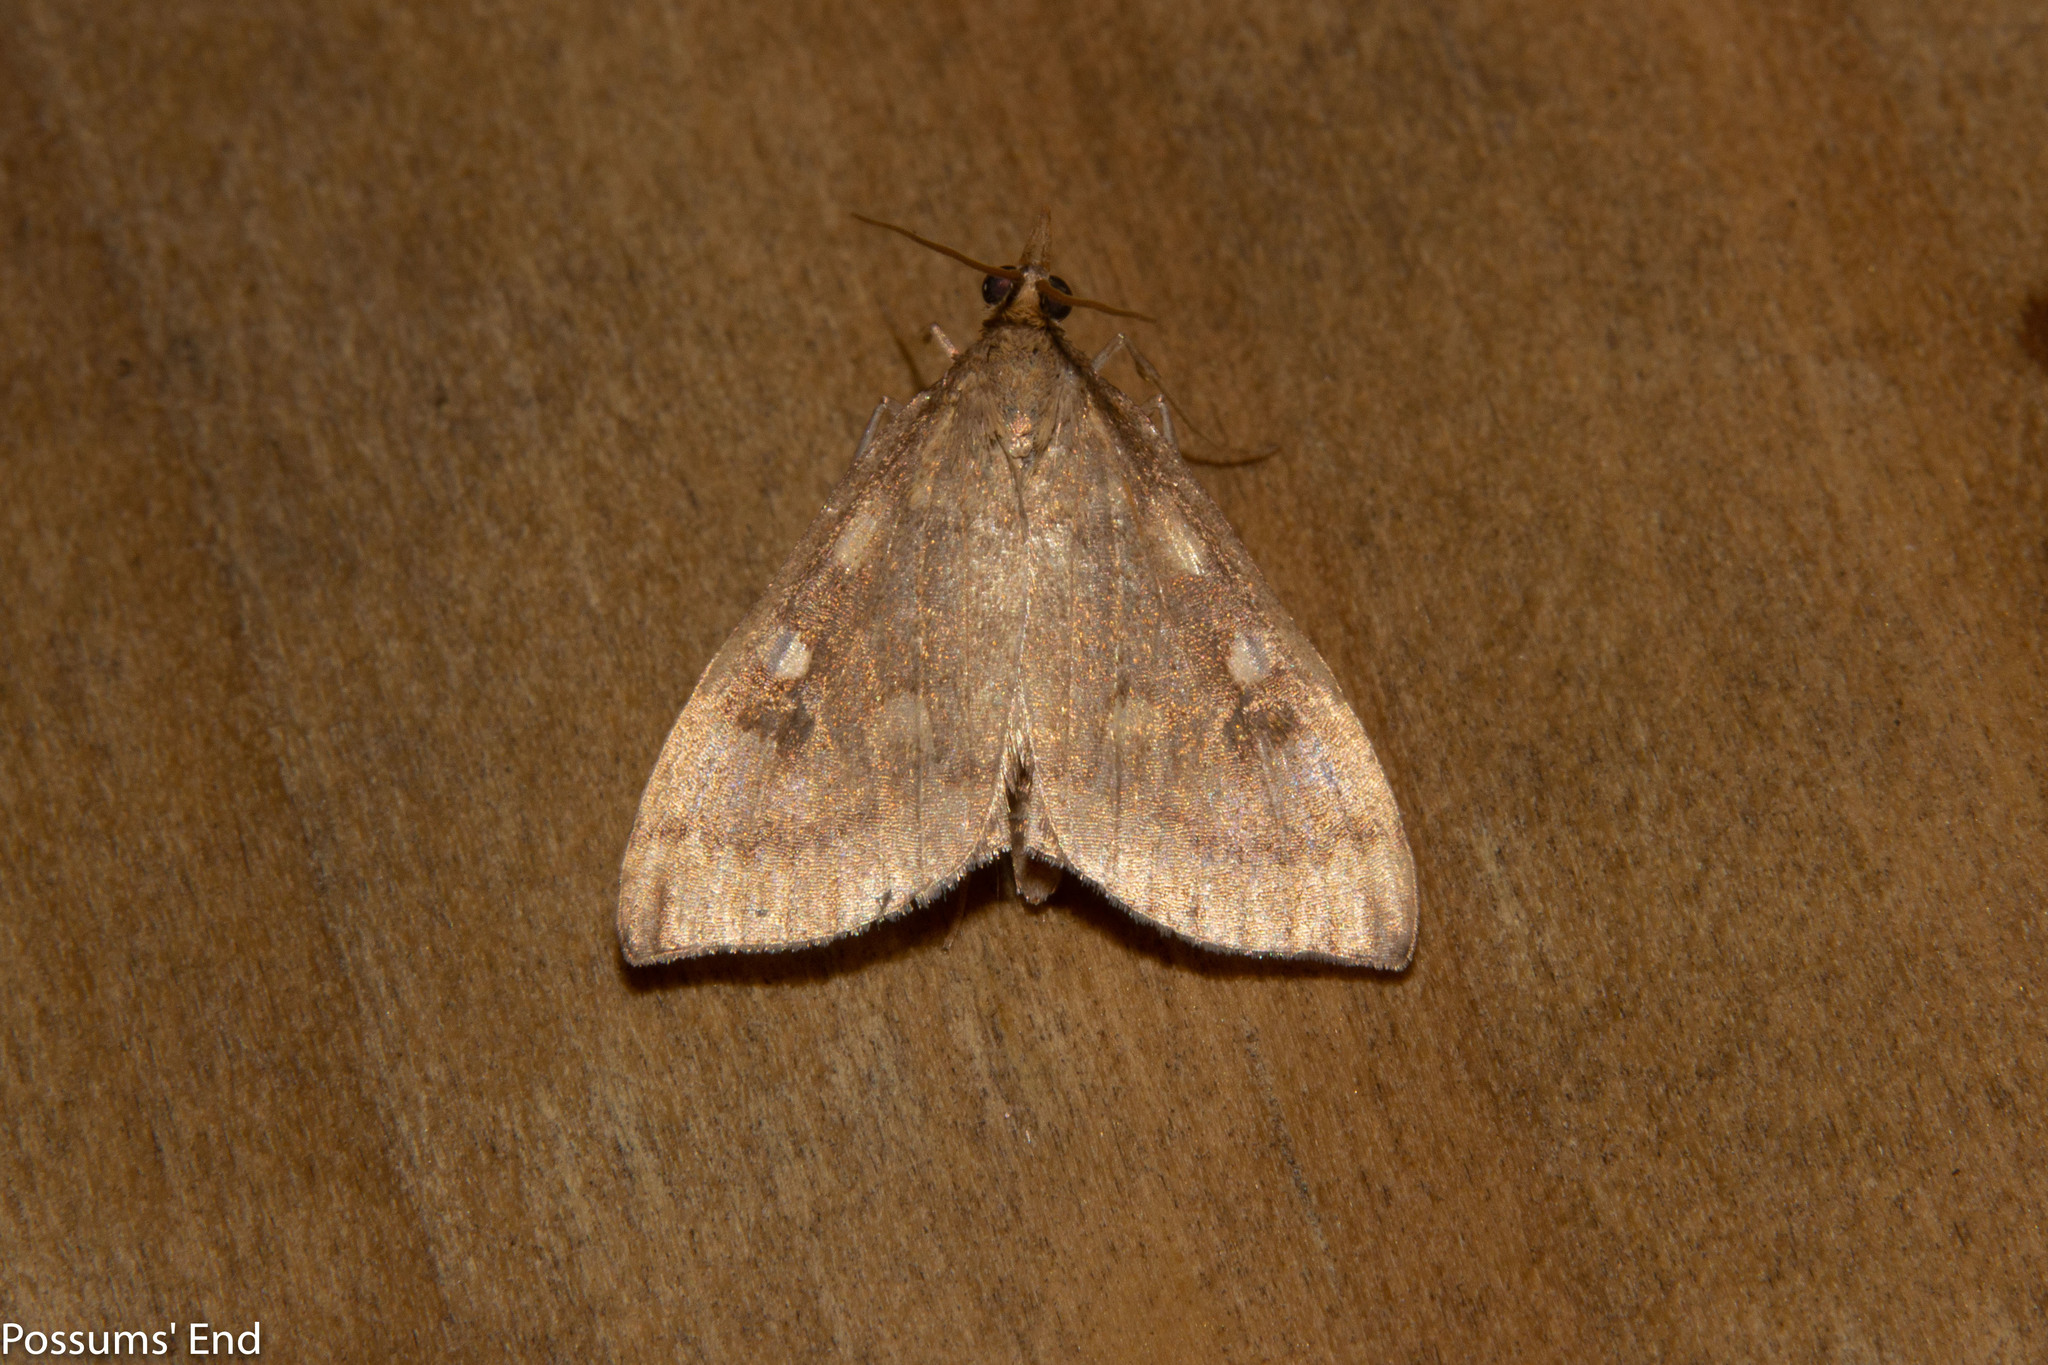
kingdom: Animalia
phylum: Arthropoda
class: Insecta
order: Lepidoptera
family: Crambidae
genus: Udea
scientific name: Udea Mnesictena marmarina
